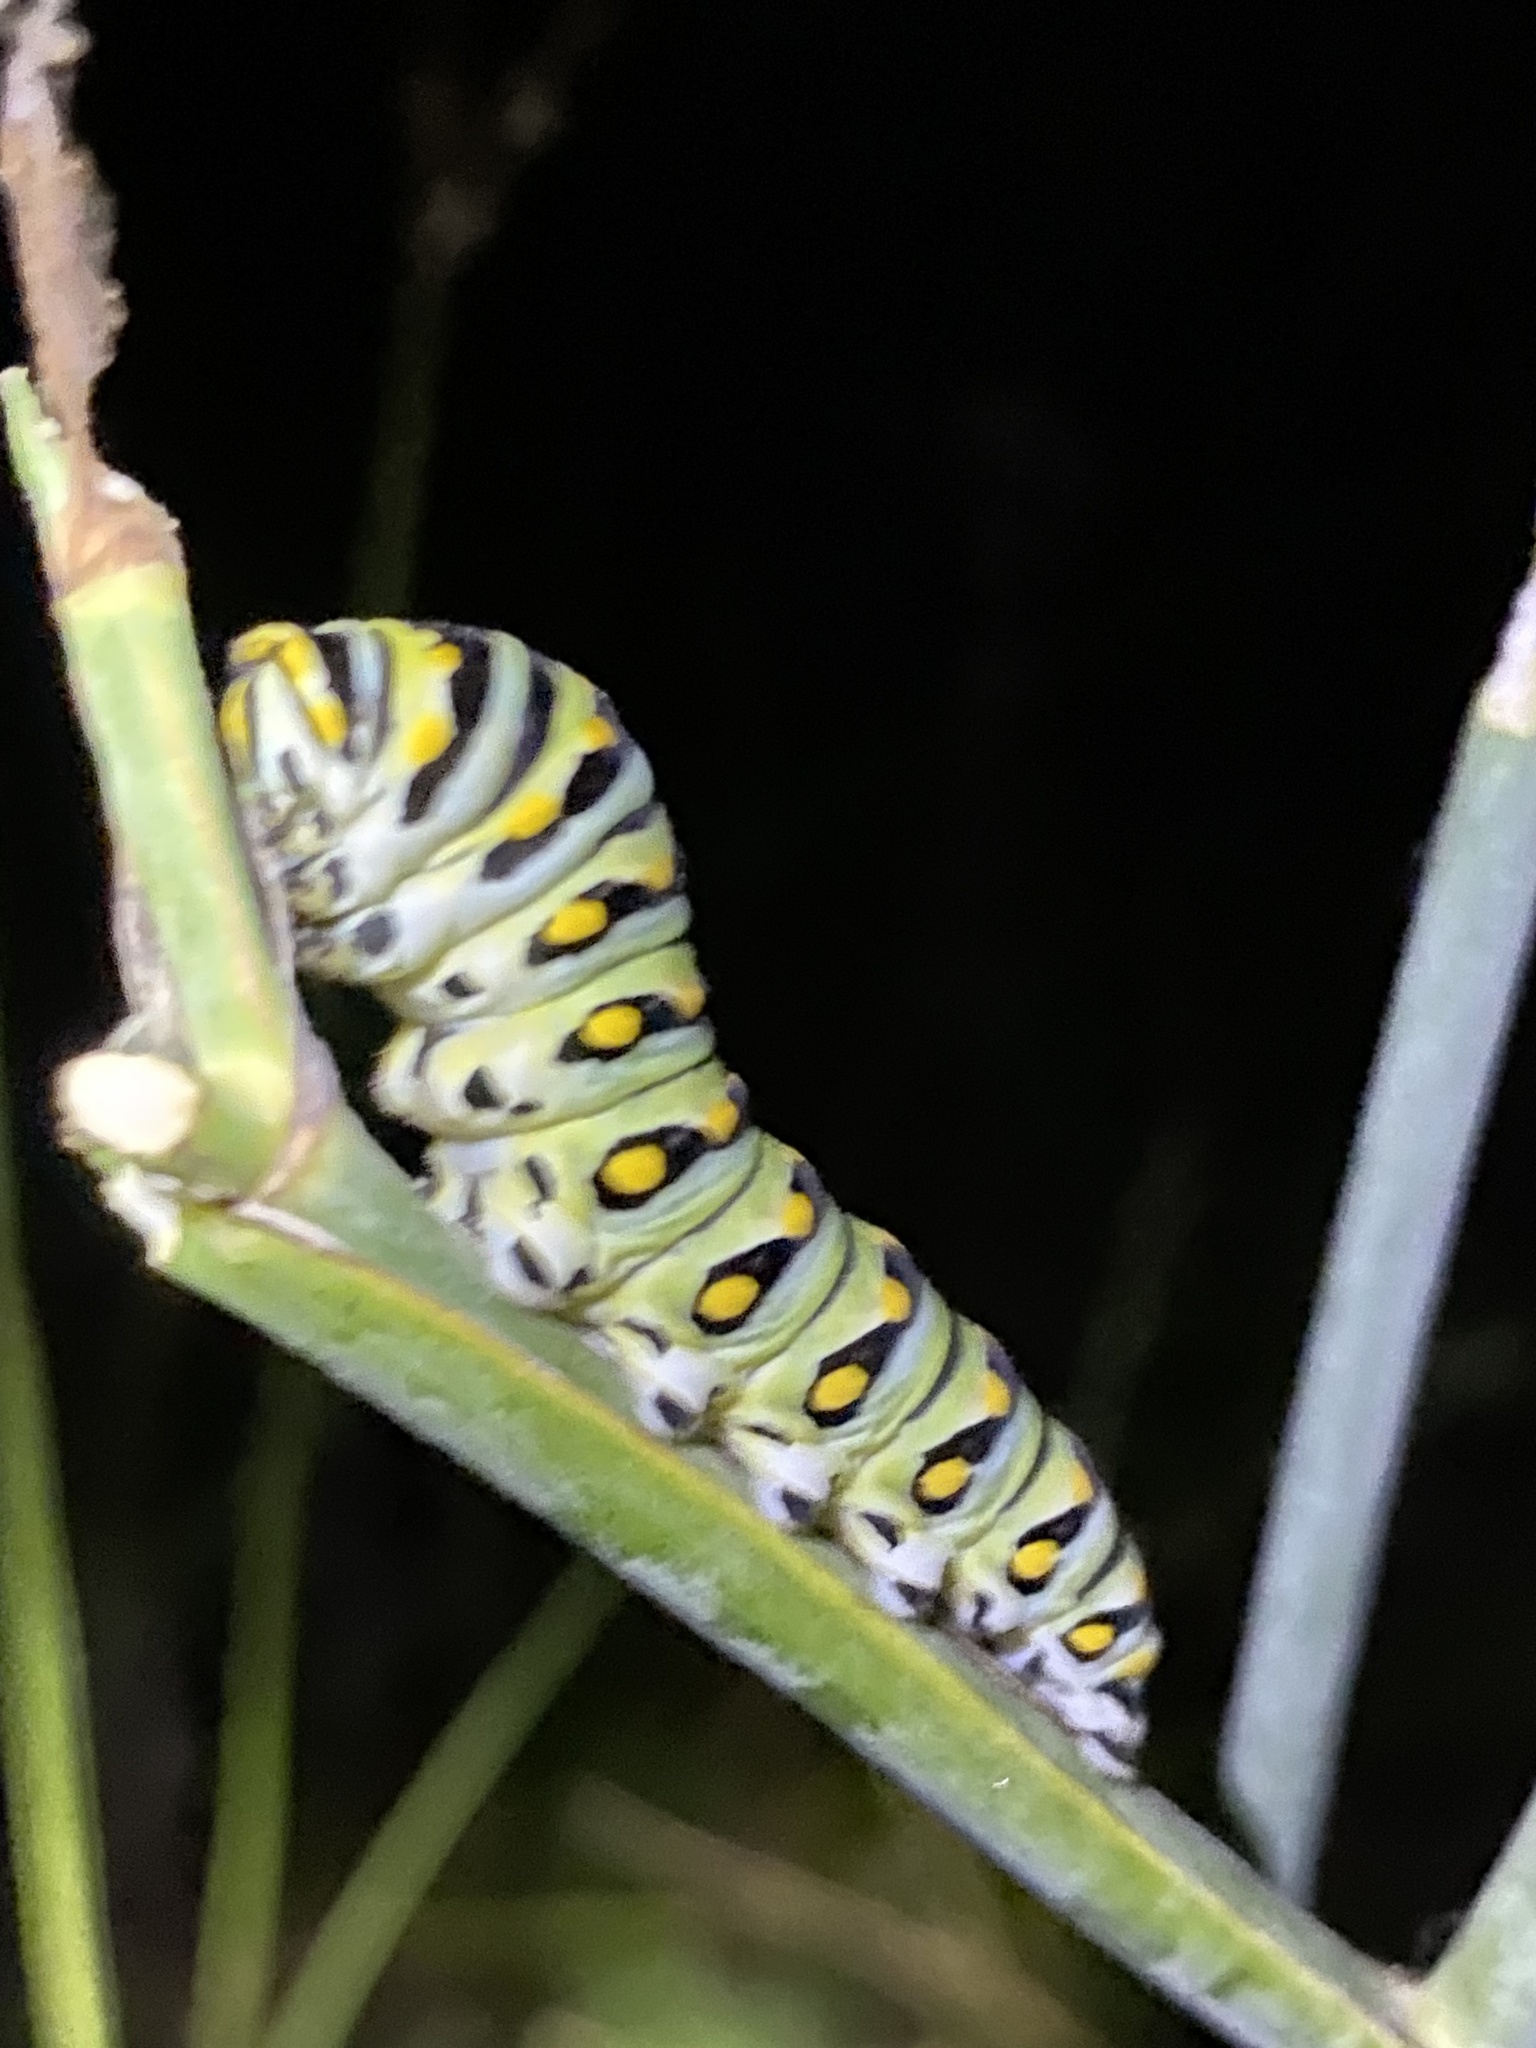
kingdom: Animalia
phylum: Arthropoda
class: Insecta
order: Lepidoptera
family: Papilionidae
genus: Papilio
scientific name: Papilio polyxenes
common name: Black swallowtail
